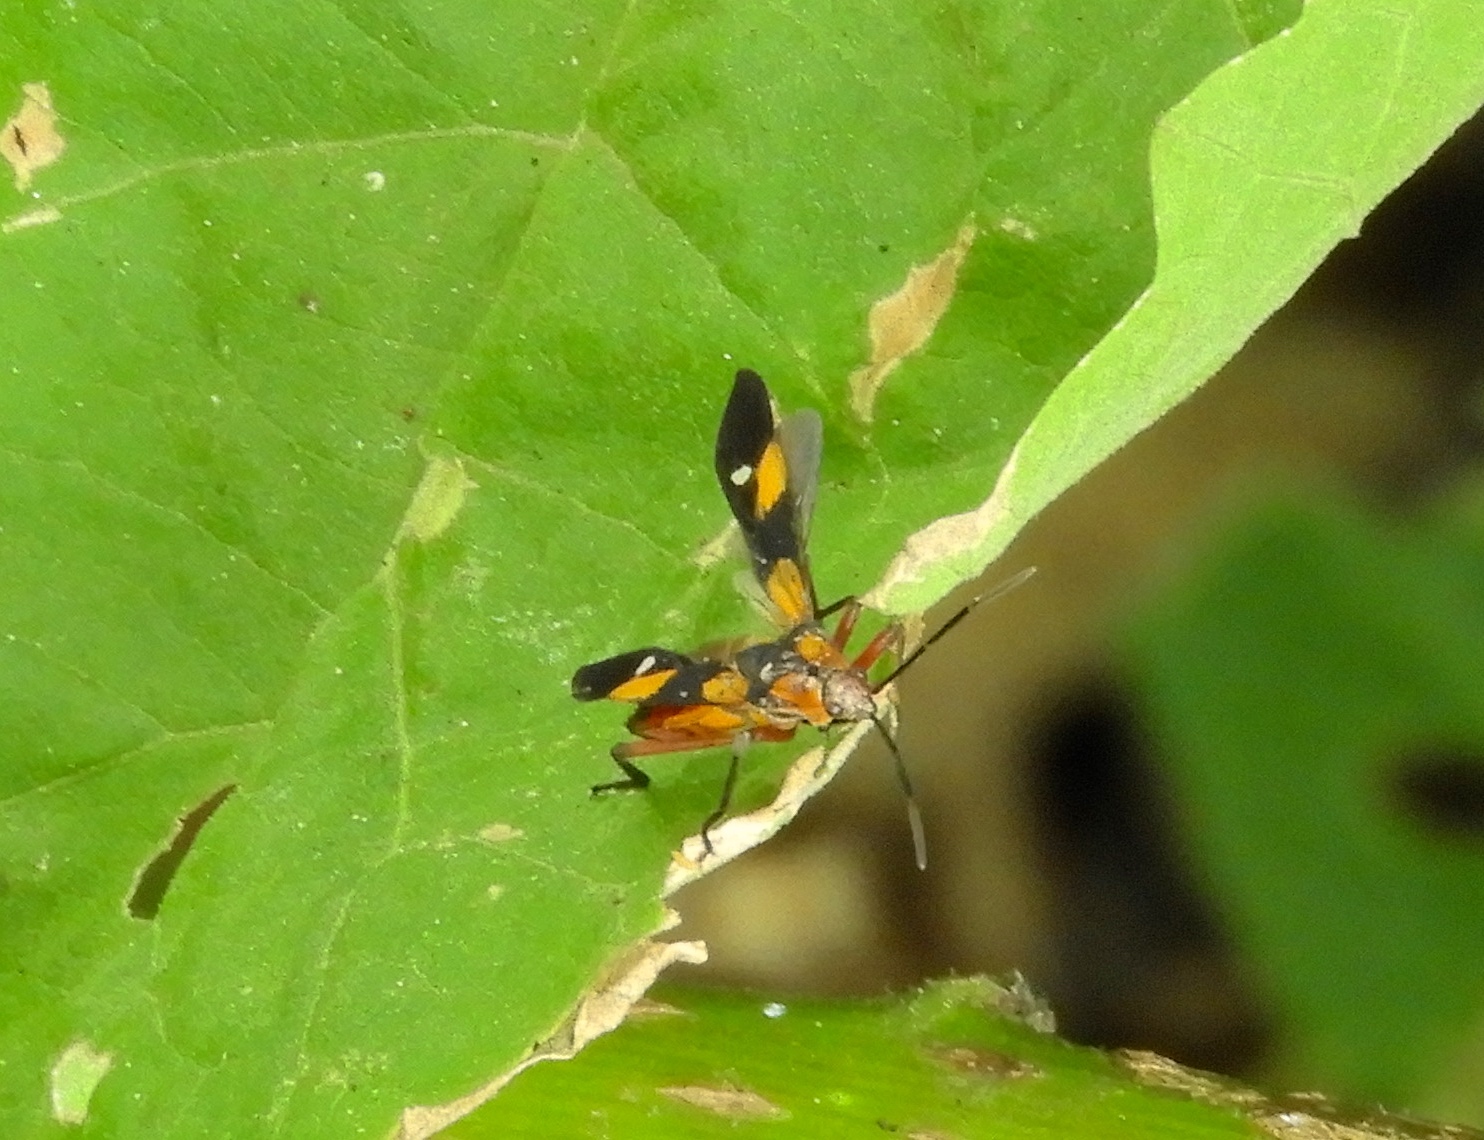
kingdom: Animalia
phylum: Arthropoda
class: Insecta
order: Hemiptera
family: Lygaeidae
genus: Oncopeltus
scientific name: Oncopeltus guttaloides
